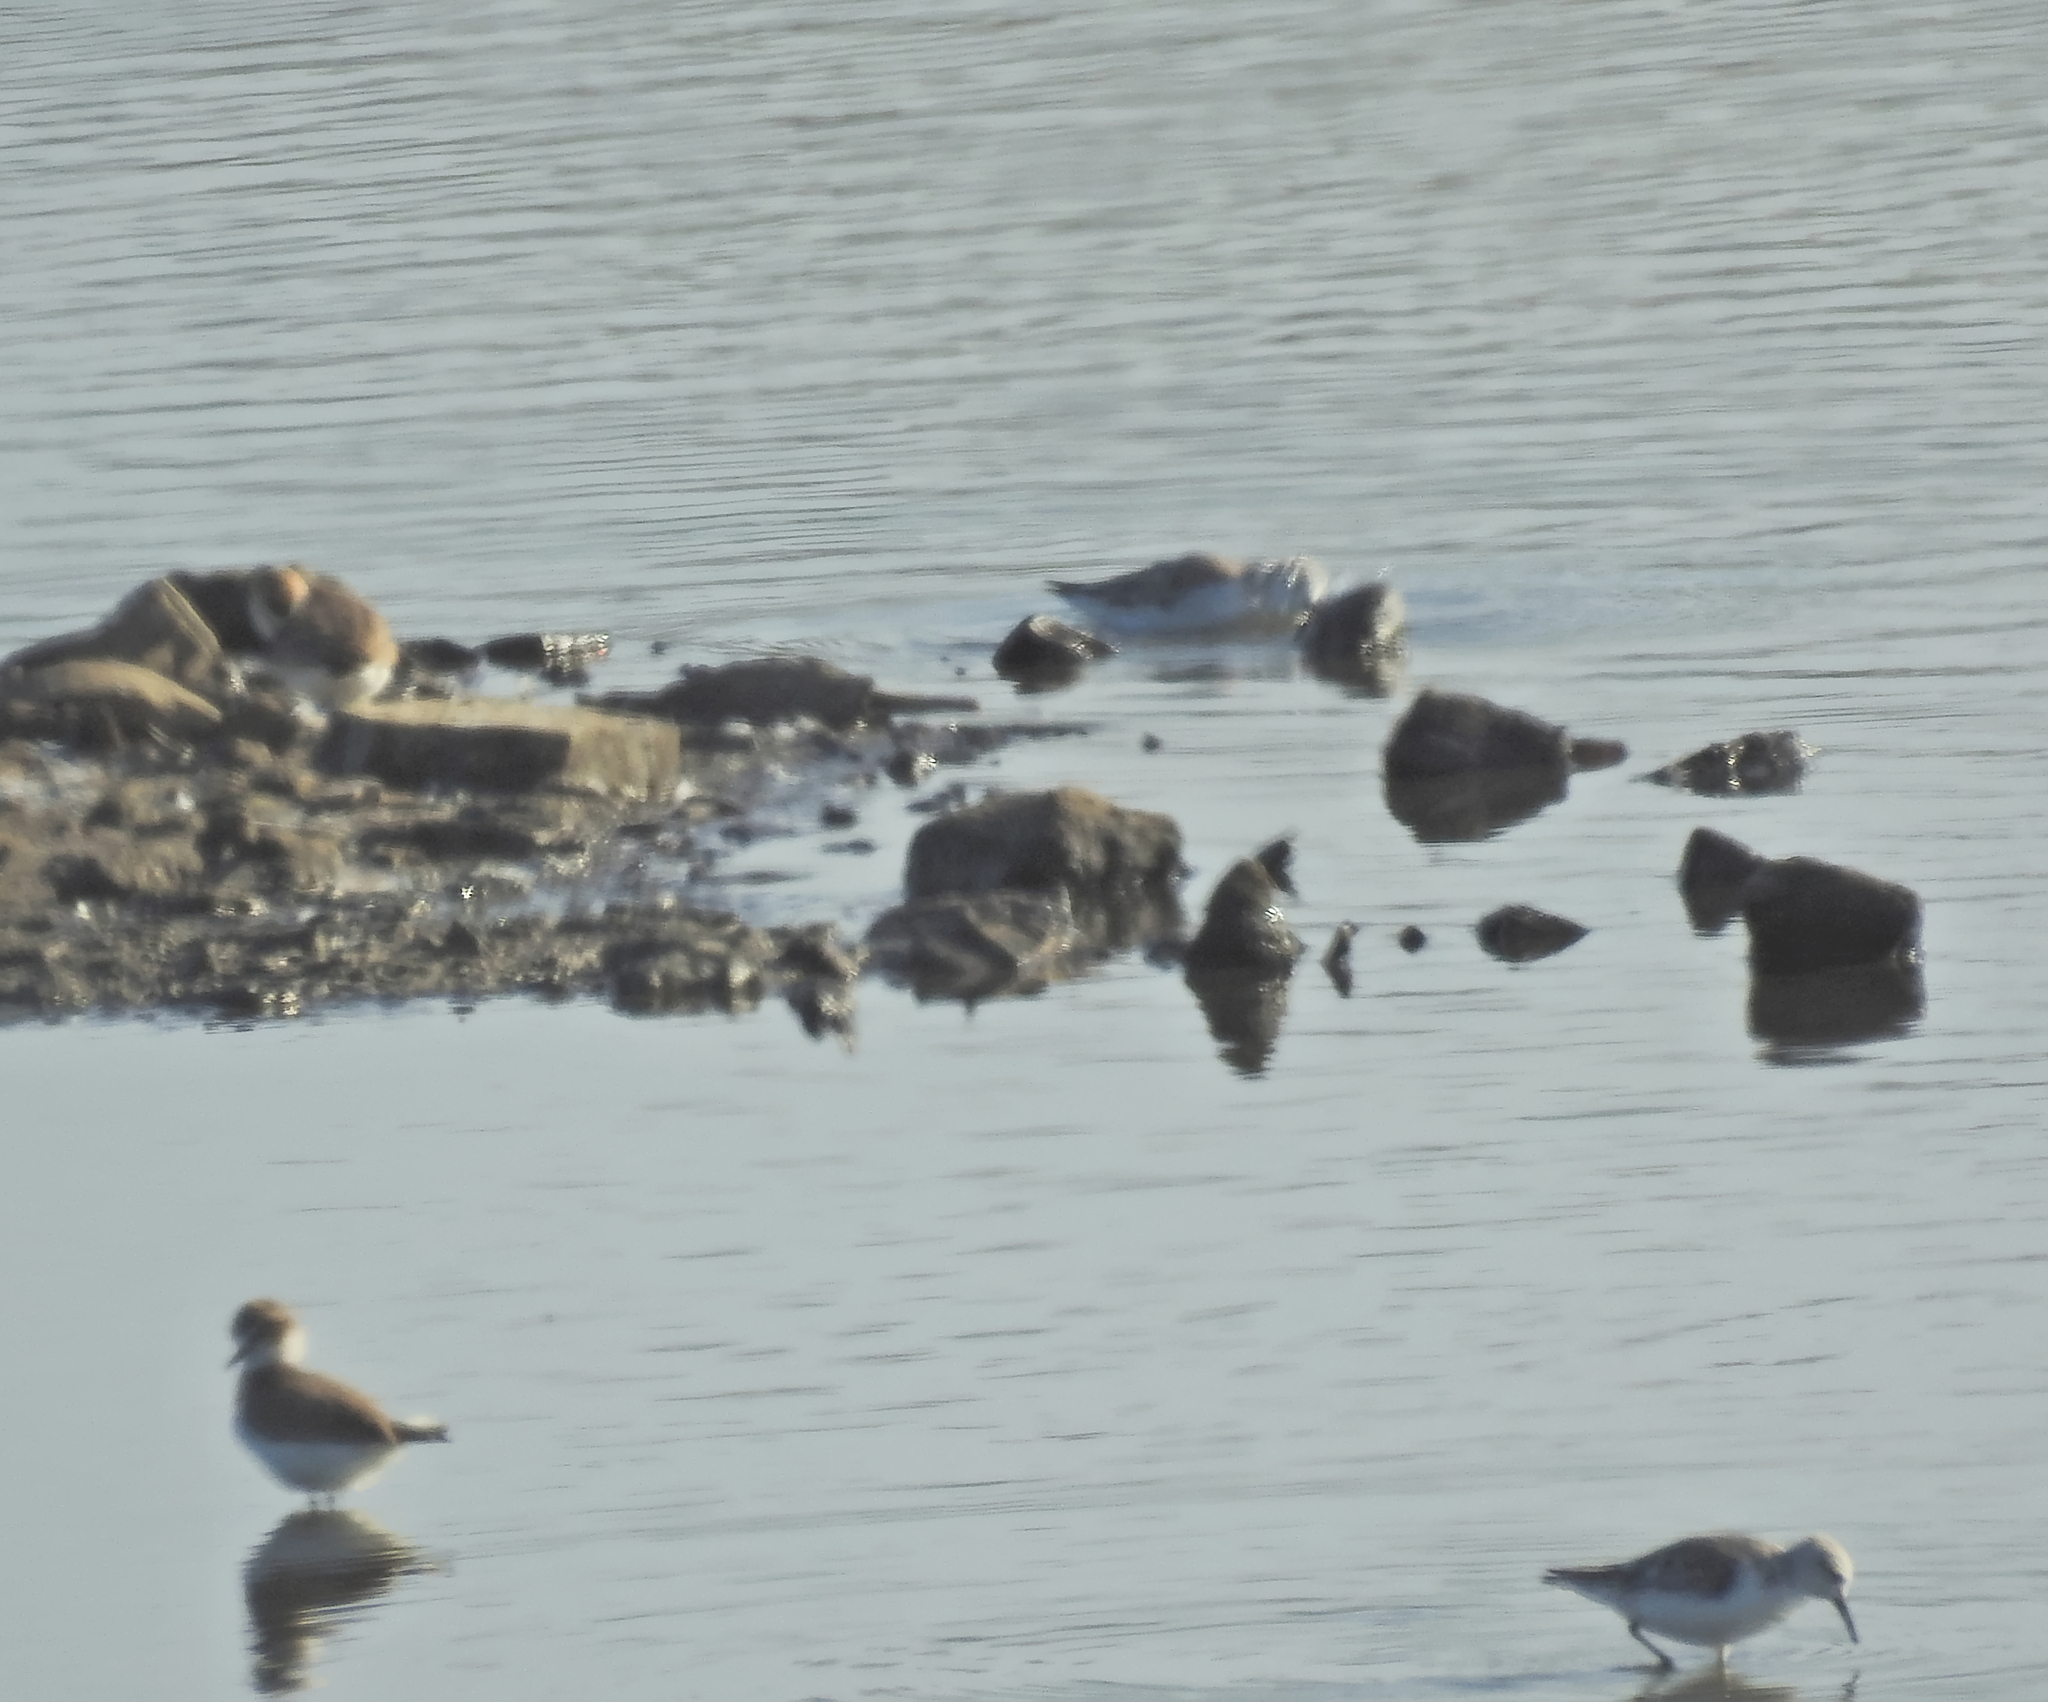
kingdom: Animalia
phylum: Chordata
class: Aves
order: Charadriiformes
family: Charadriidae
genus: Charadrius
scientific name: Charadrius alexandrinus
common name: Kentish plover
